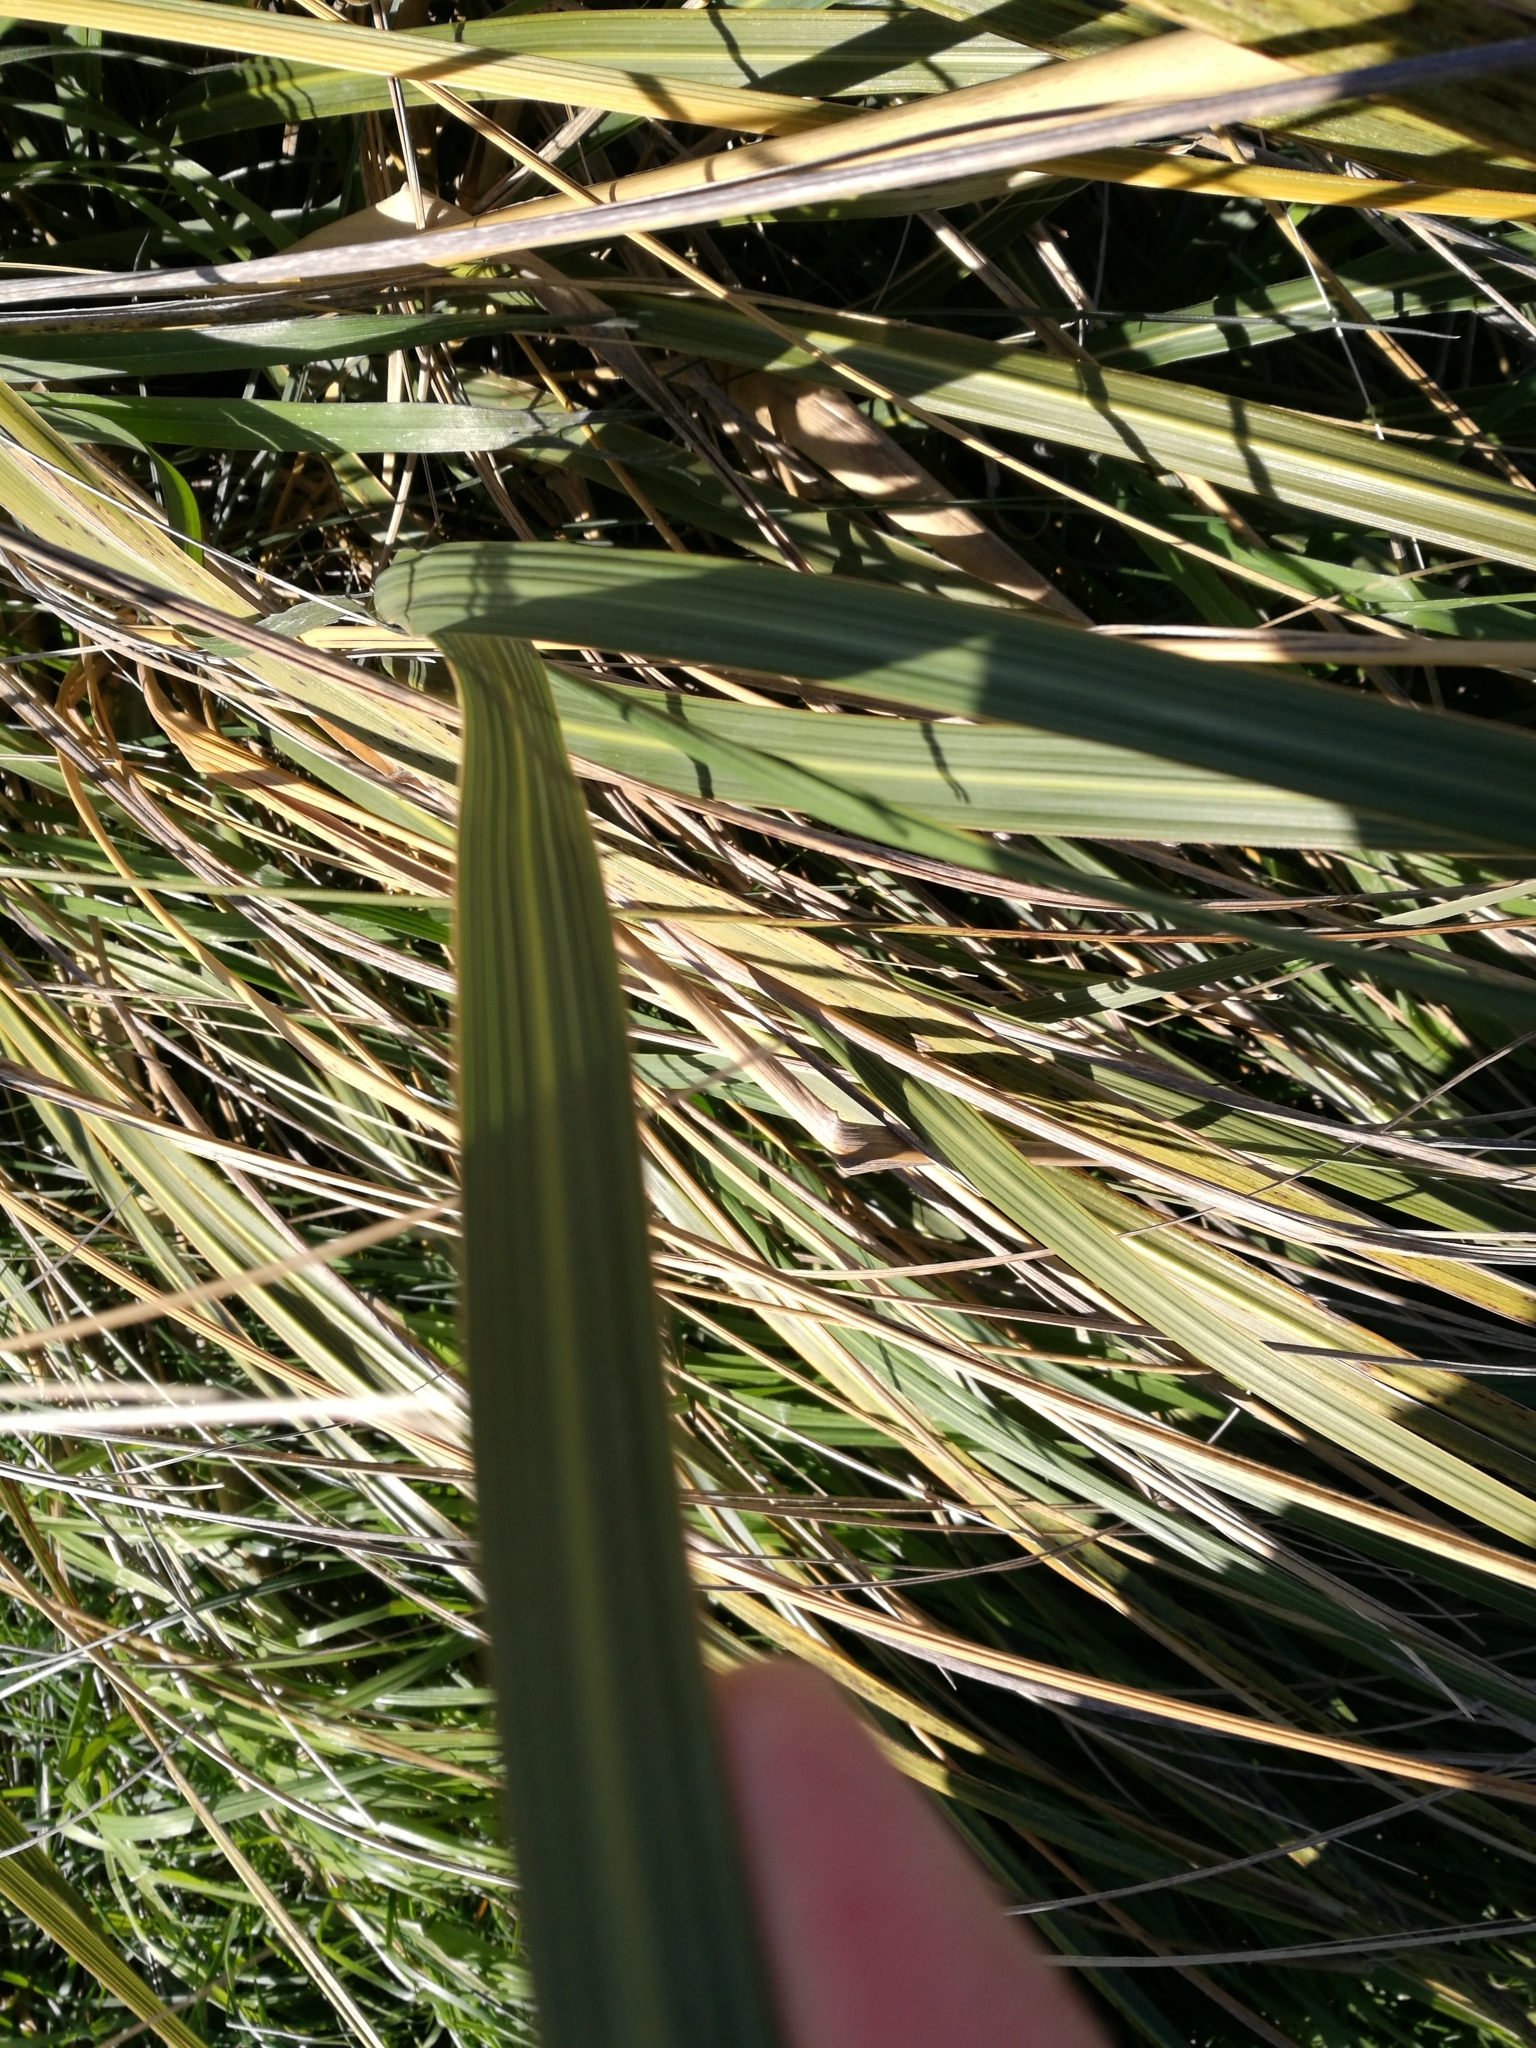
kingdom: Plantae
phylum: Tracheophyta
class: Liliopsida
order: Poales
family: Poaceae
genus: Austroderia
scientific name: Austroderia richardii
